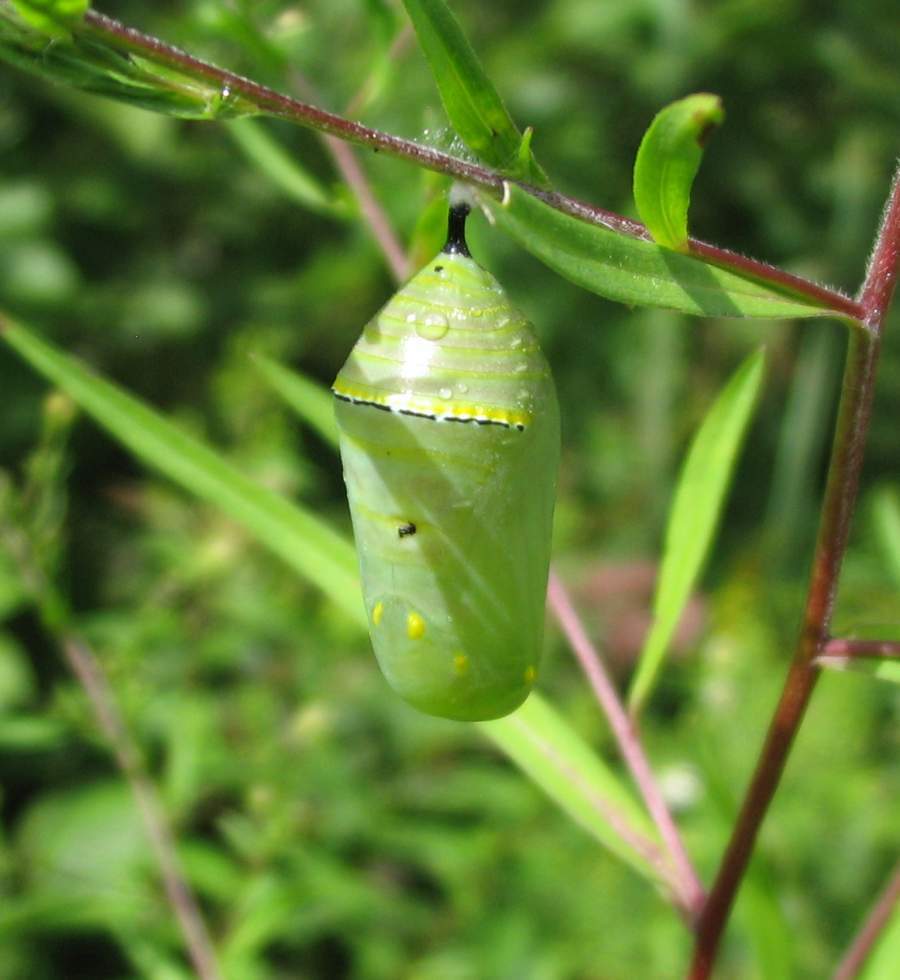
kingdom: Animalia
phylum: Arthropoda
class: Insecta
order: Lepidoptera
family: Nymphalidae
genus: Danaus
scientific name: Danaus plexippus
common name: Monarch
